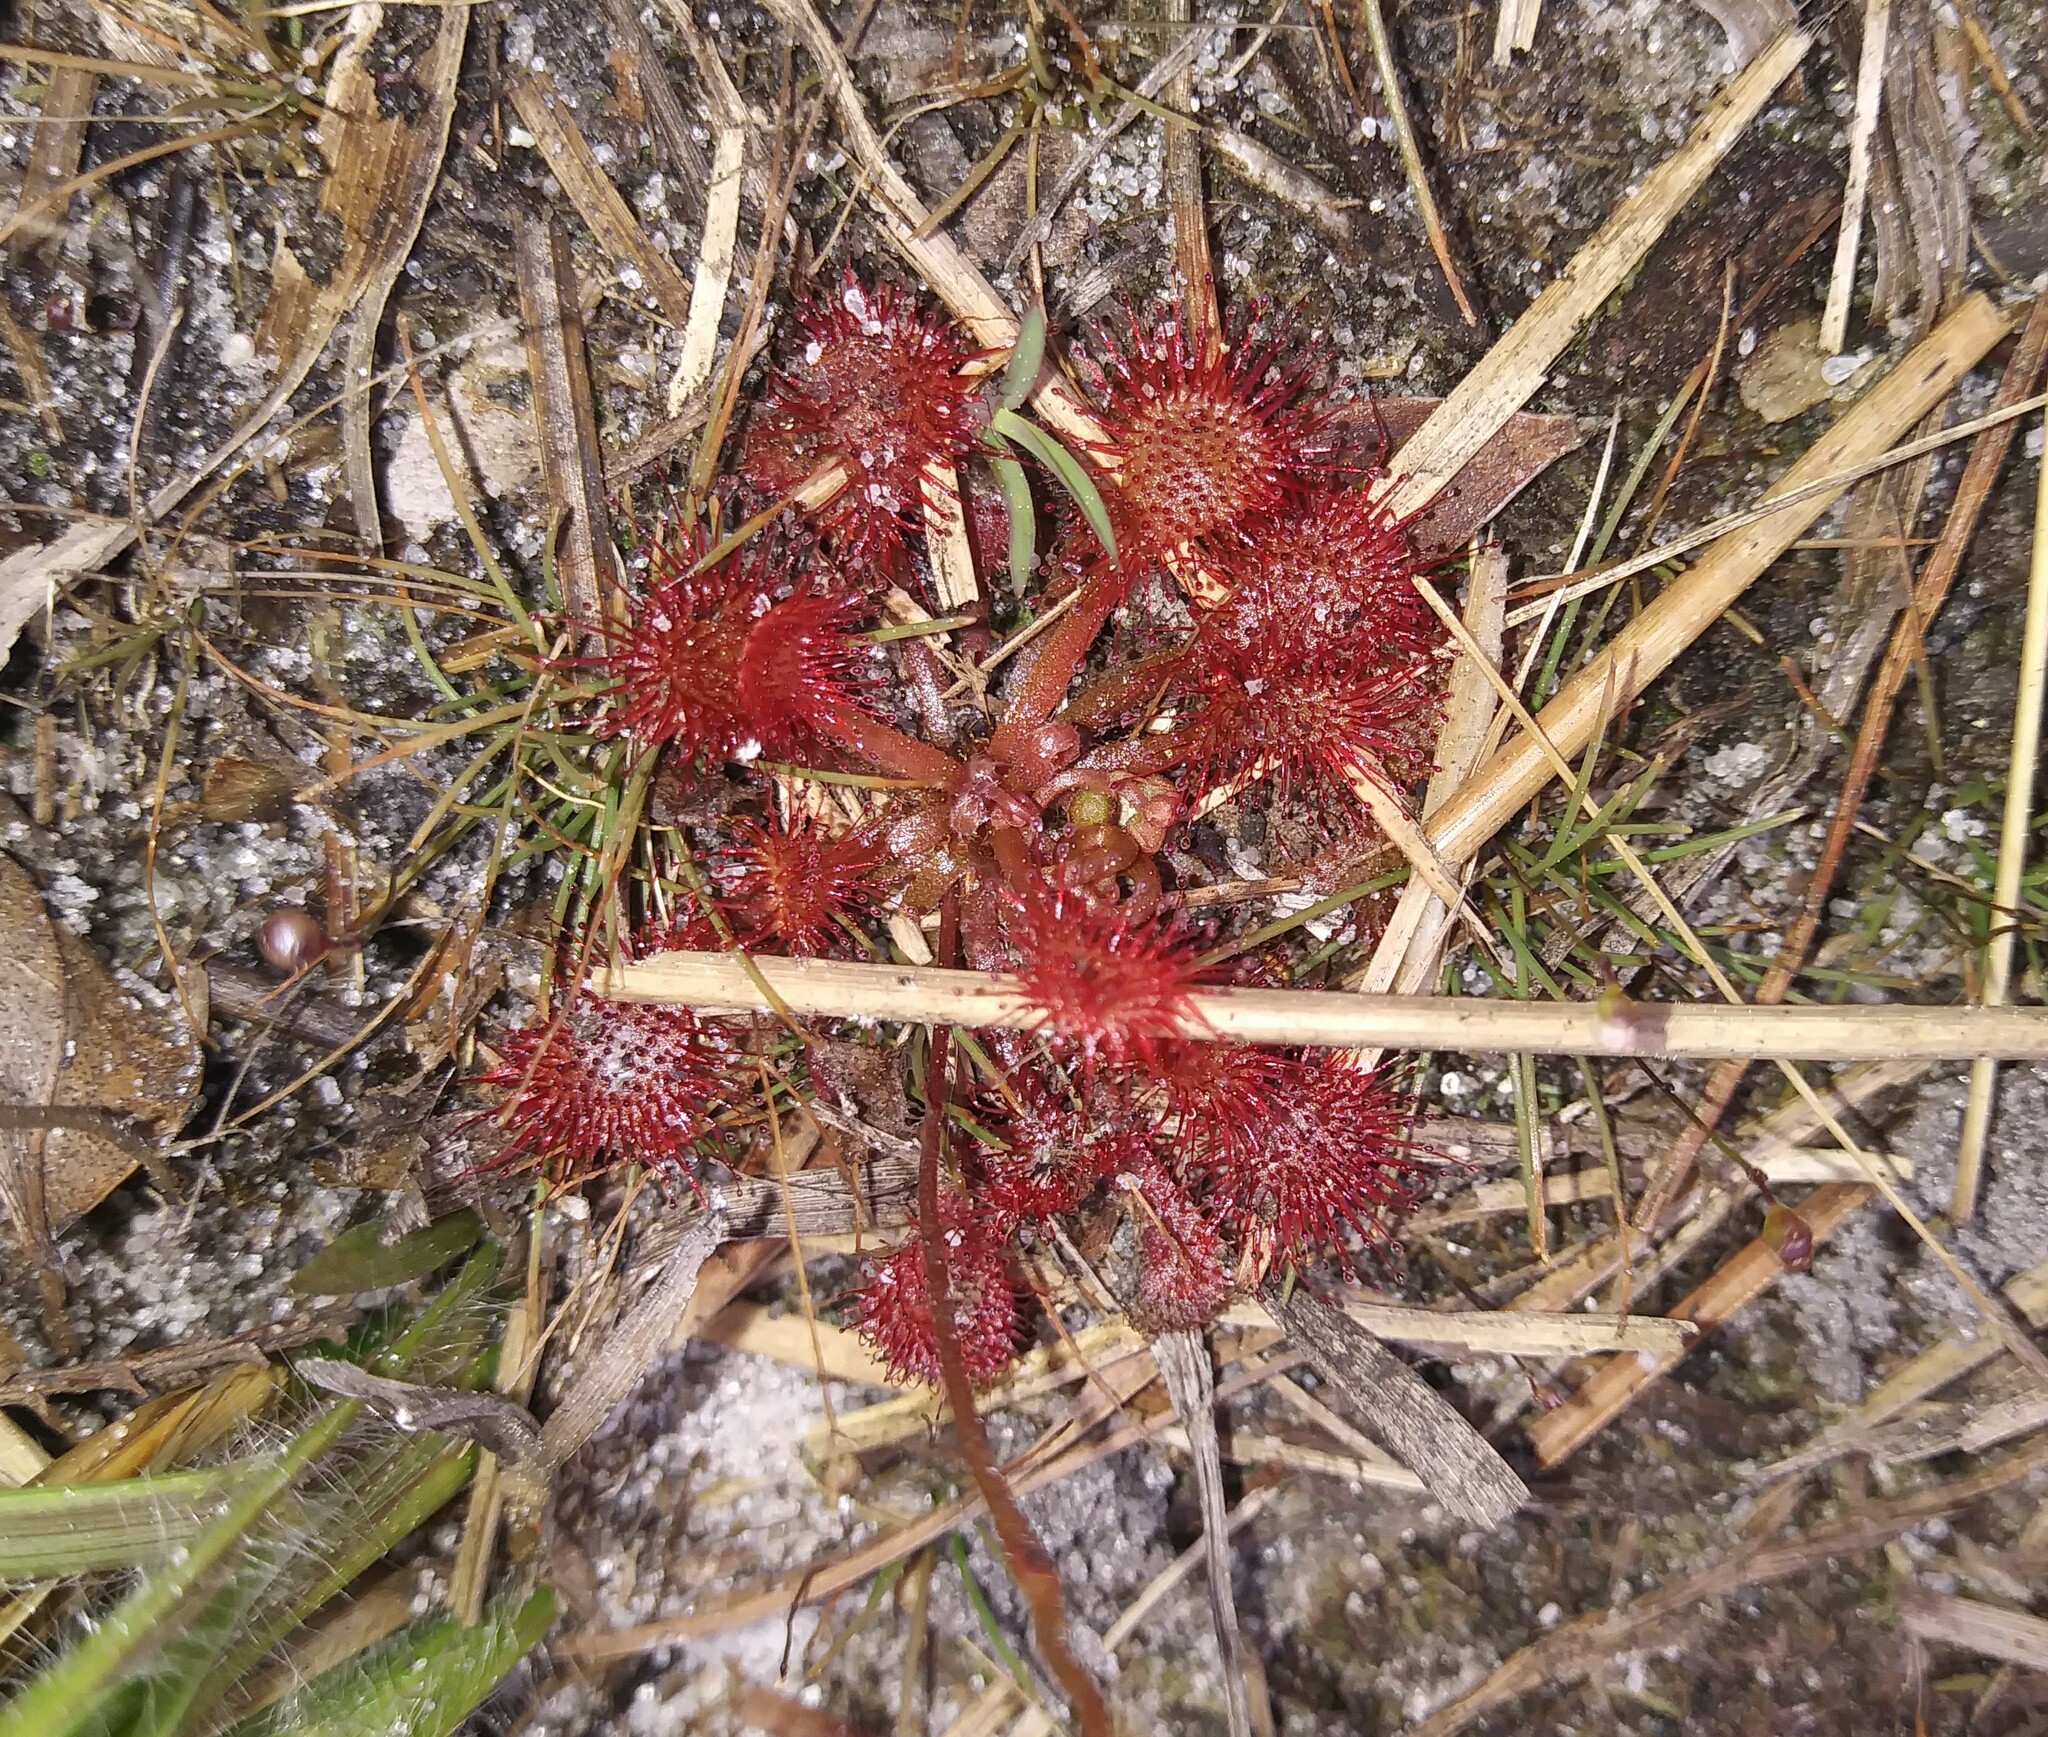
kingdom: Plantae
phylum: Tracheophyta
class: Magnoliopsida
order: Caryophyllales
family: Droseraceae
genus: Drosera
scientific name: Drosera capillaris
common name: Pink sundew
